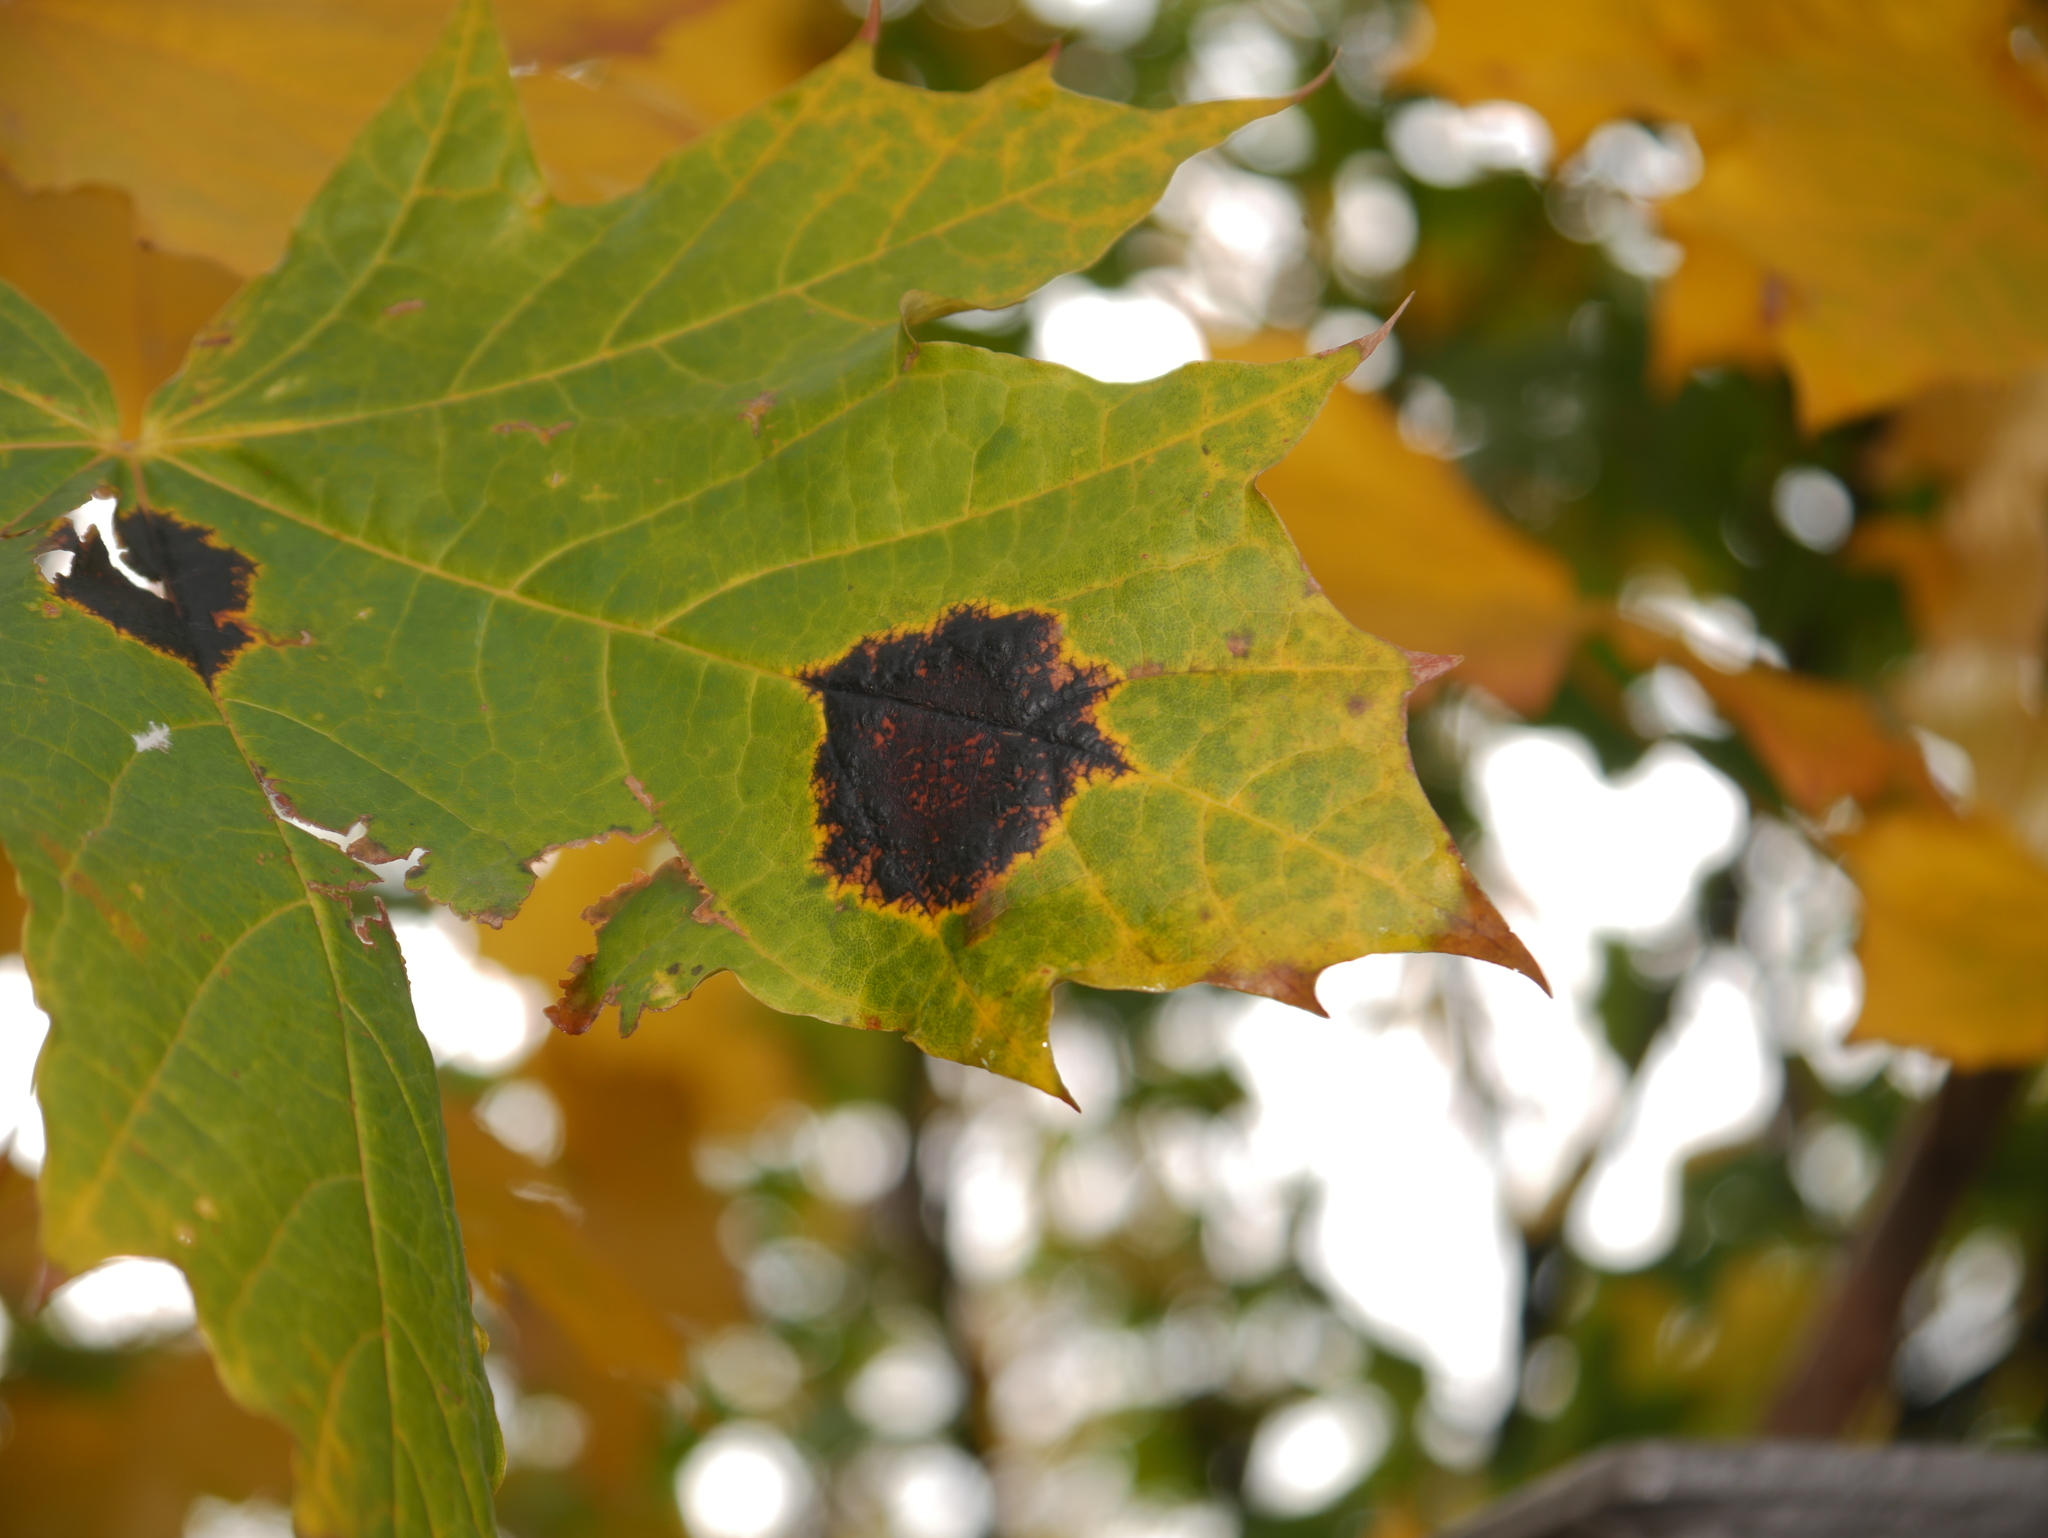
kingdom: Fungi
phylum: Ascomycota
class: Leotiomycetes
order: Rhytismatales
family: Rhytismataceae
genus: Rhytisma
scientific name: Rhytisma acerinum
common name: European tar spot
